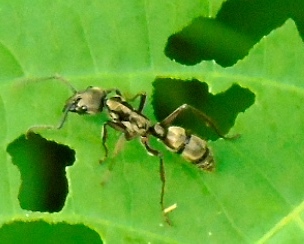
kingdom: Animalia
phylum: Arthropoda
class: Insecta
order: Hymenoptera
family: Formicidae
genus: Pachycondyla
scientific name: Pachycondyla villosa
